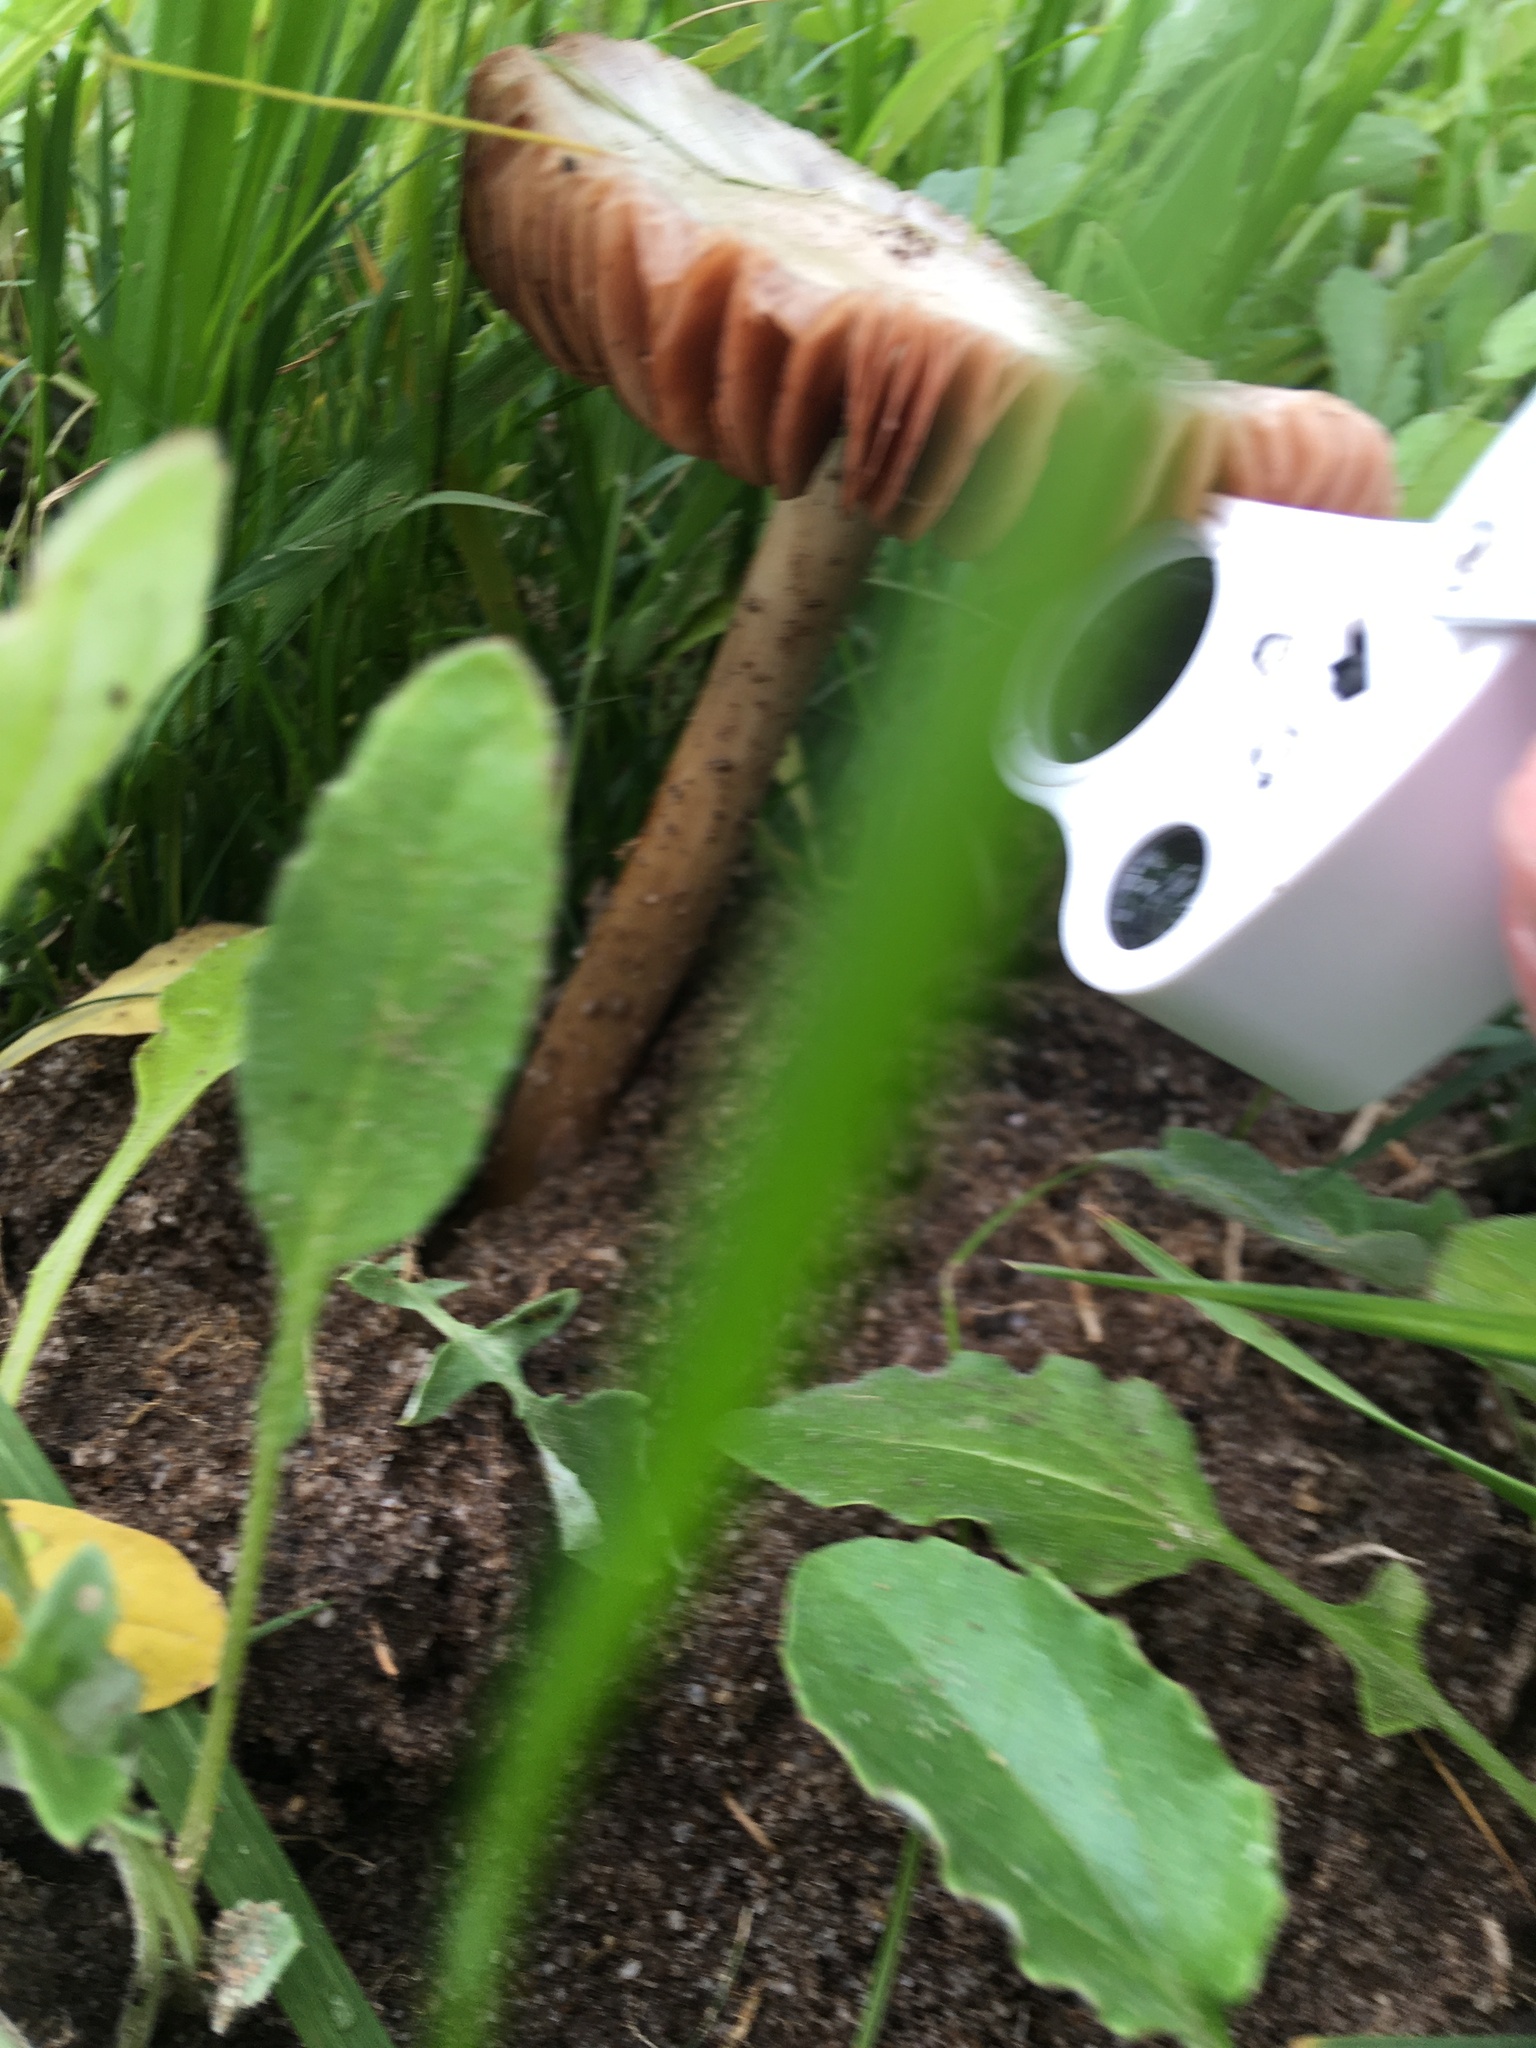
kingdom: Fungi
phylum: Basidiomycota
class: Agaricomycetes
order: Agaricales
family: Pluteaceae
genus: Volvopluteus
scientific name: Volvopluteus gloiocephalus
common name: Stubble rosegill
